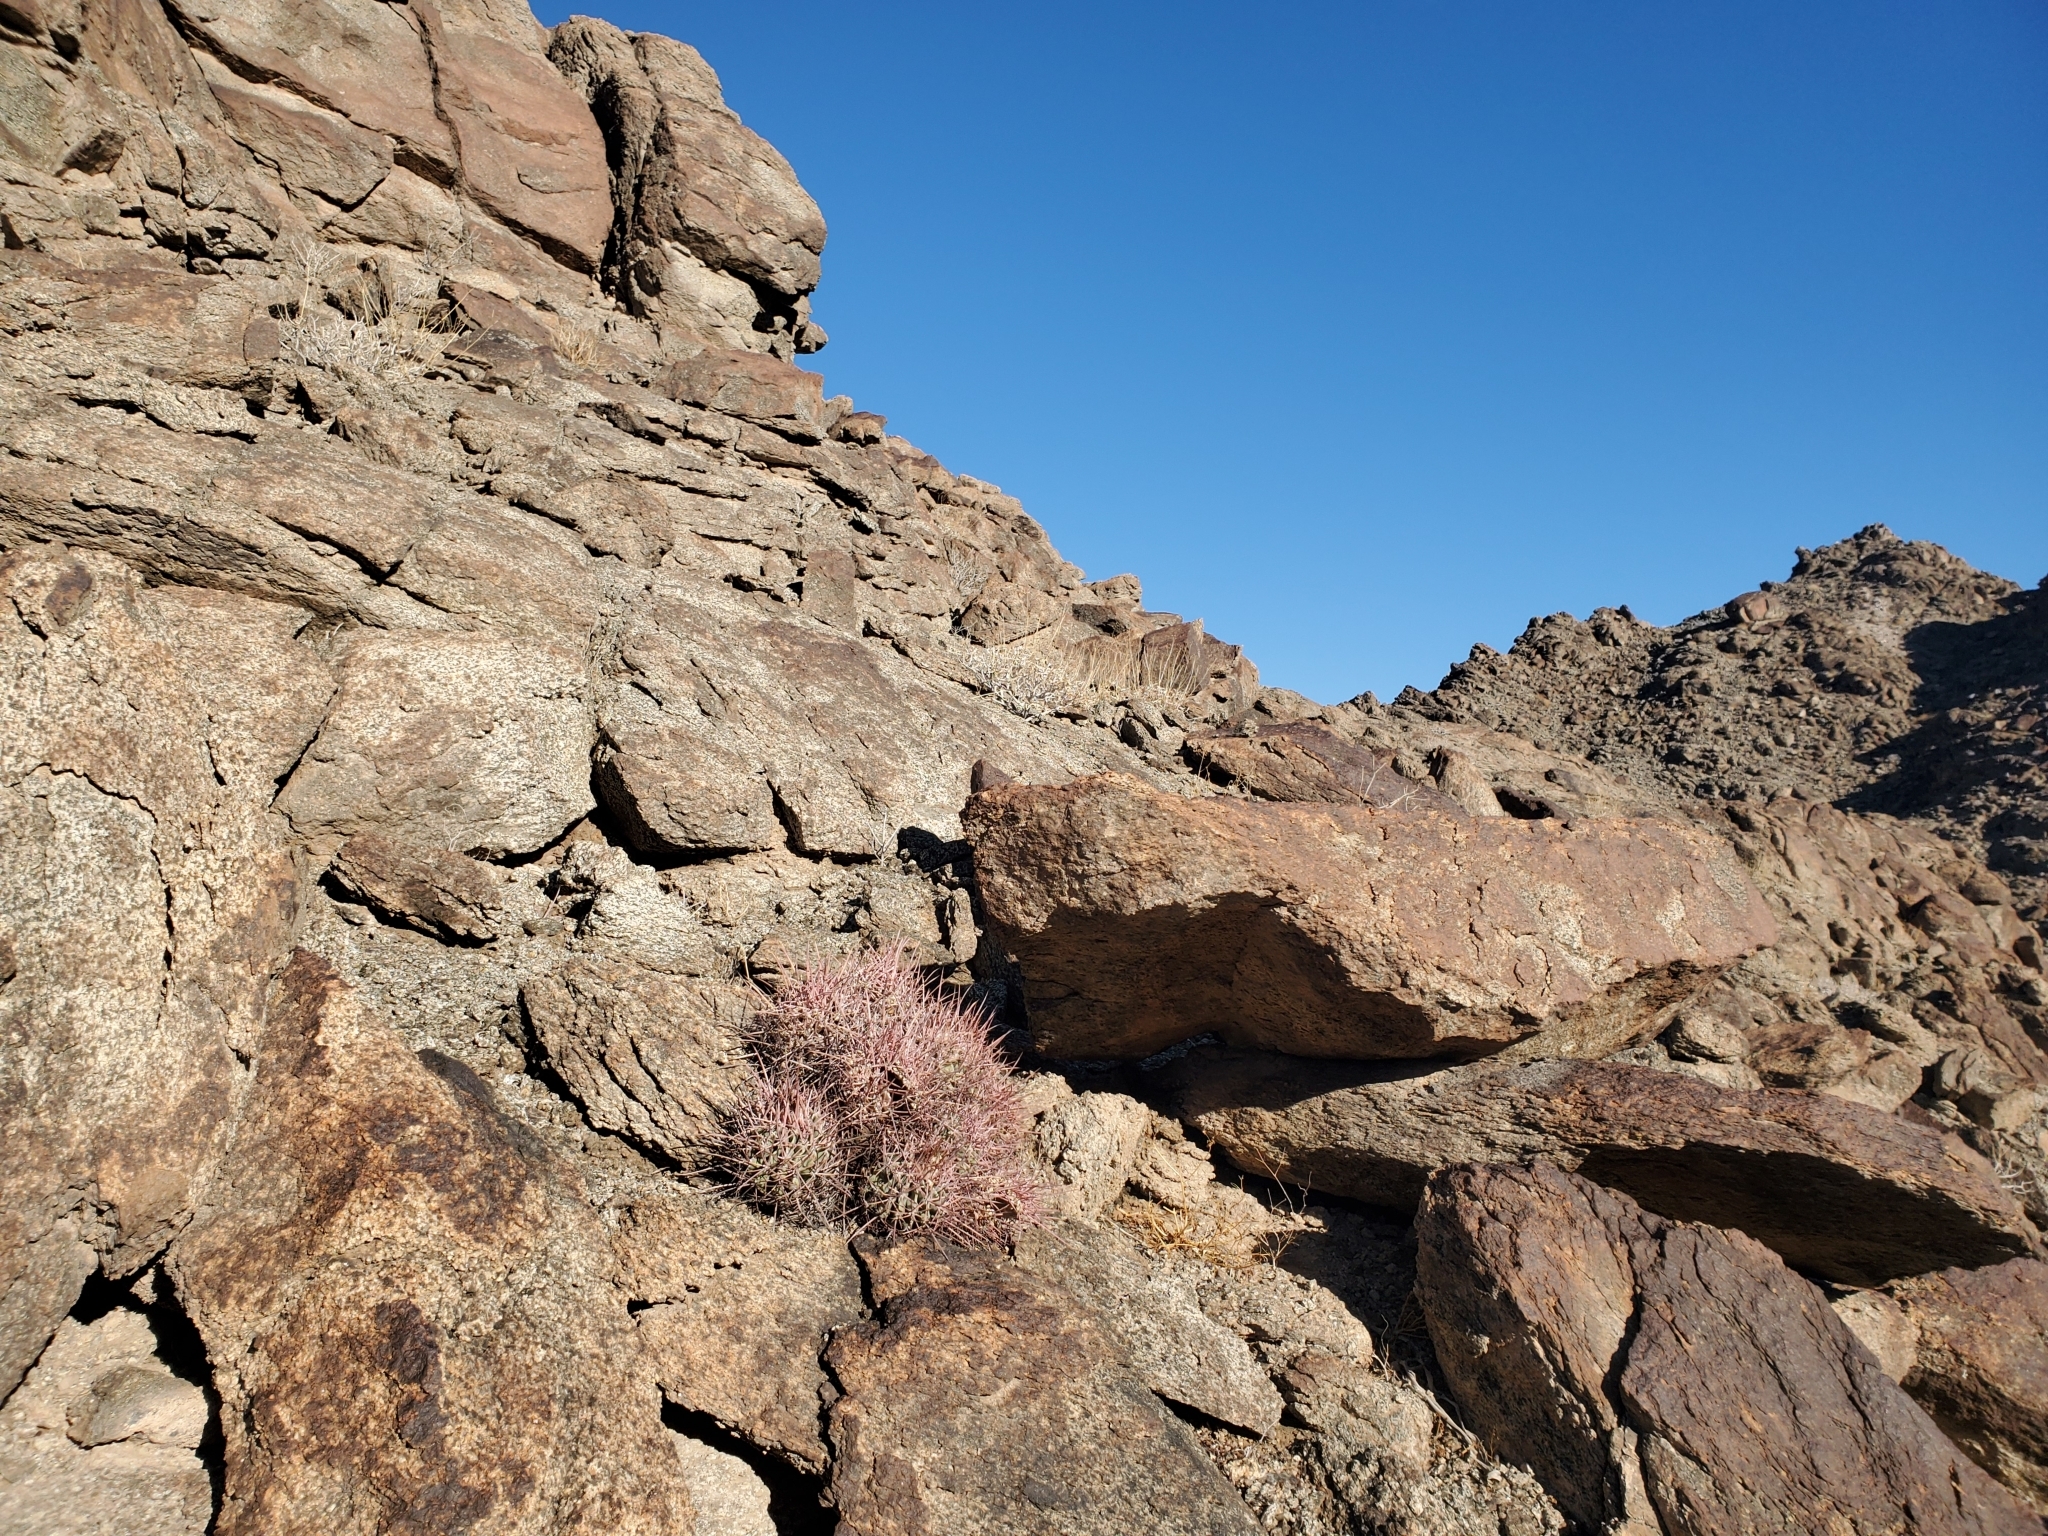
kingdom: Plantae
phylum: Tracheophyta
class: Magnoliopsida
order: Caryophyllales
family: Cactaceae
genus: Echinocactus
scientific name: Echinocactus polycephalus
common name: Cottontop cactus
